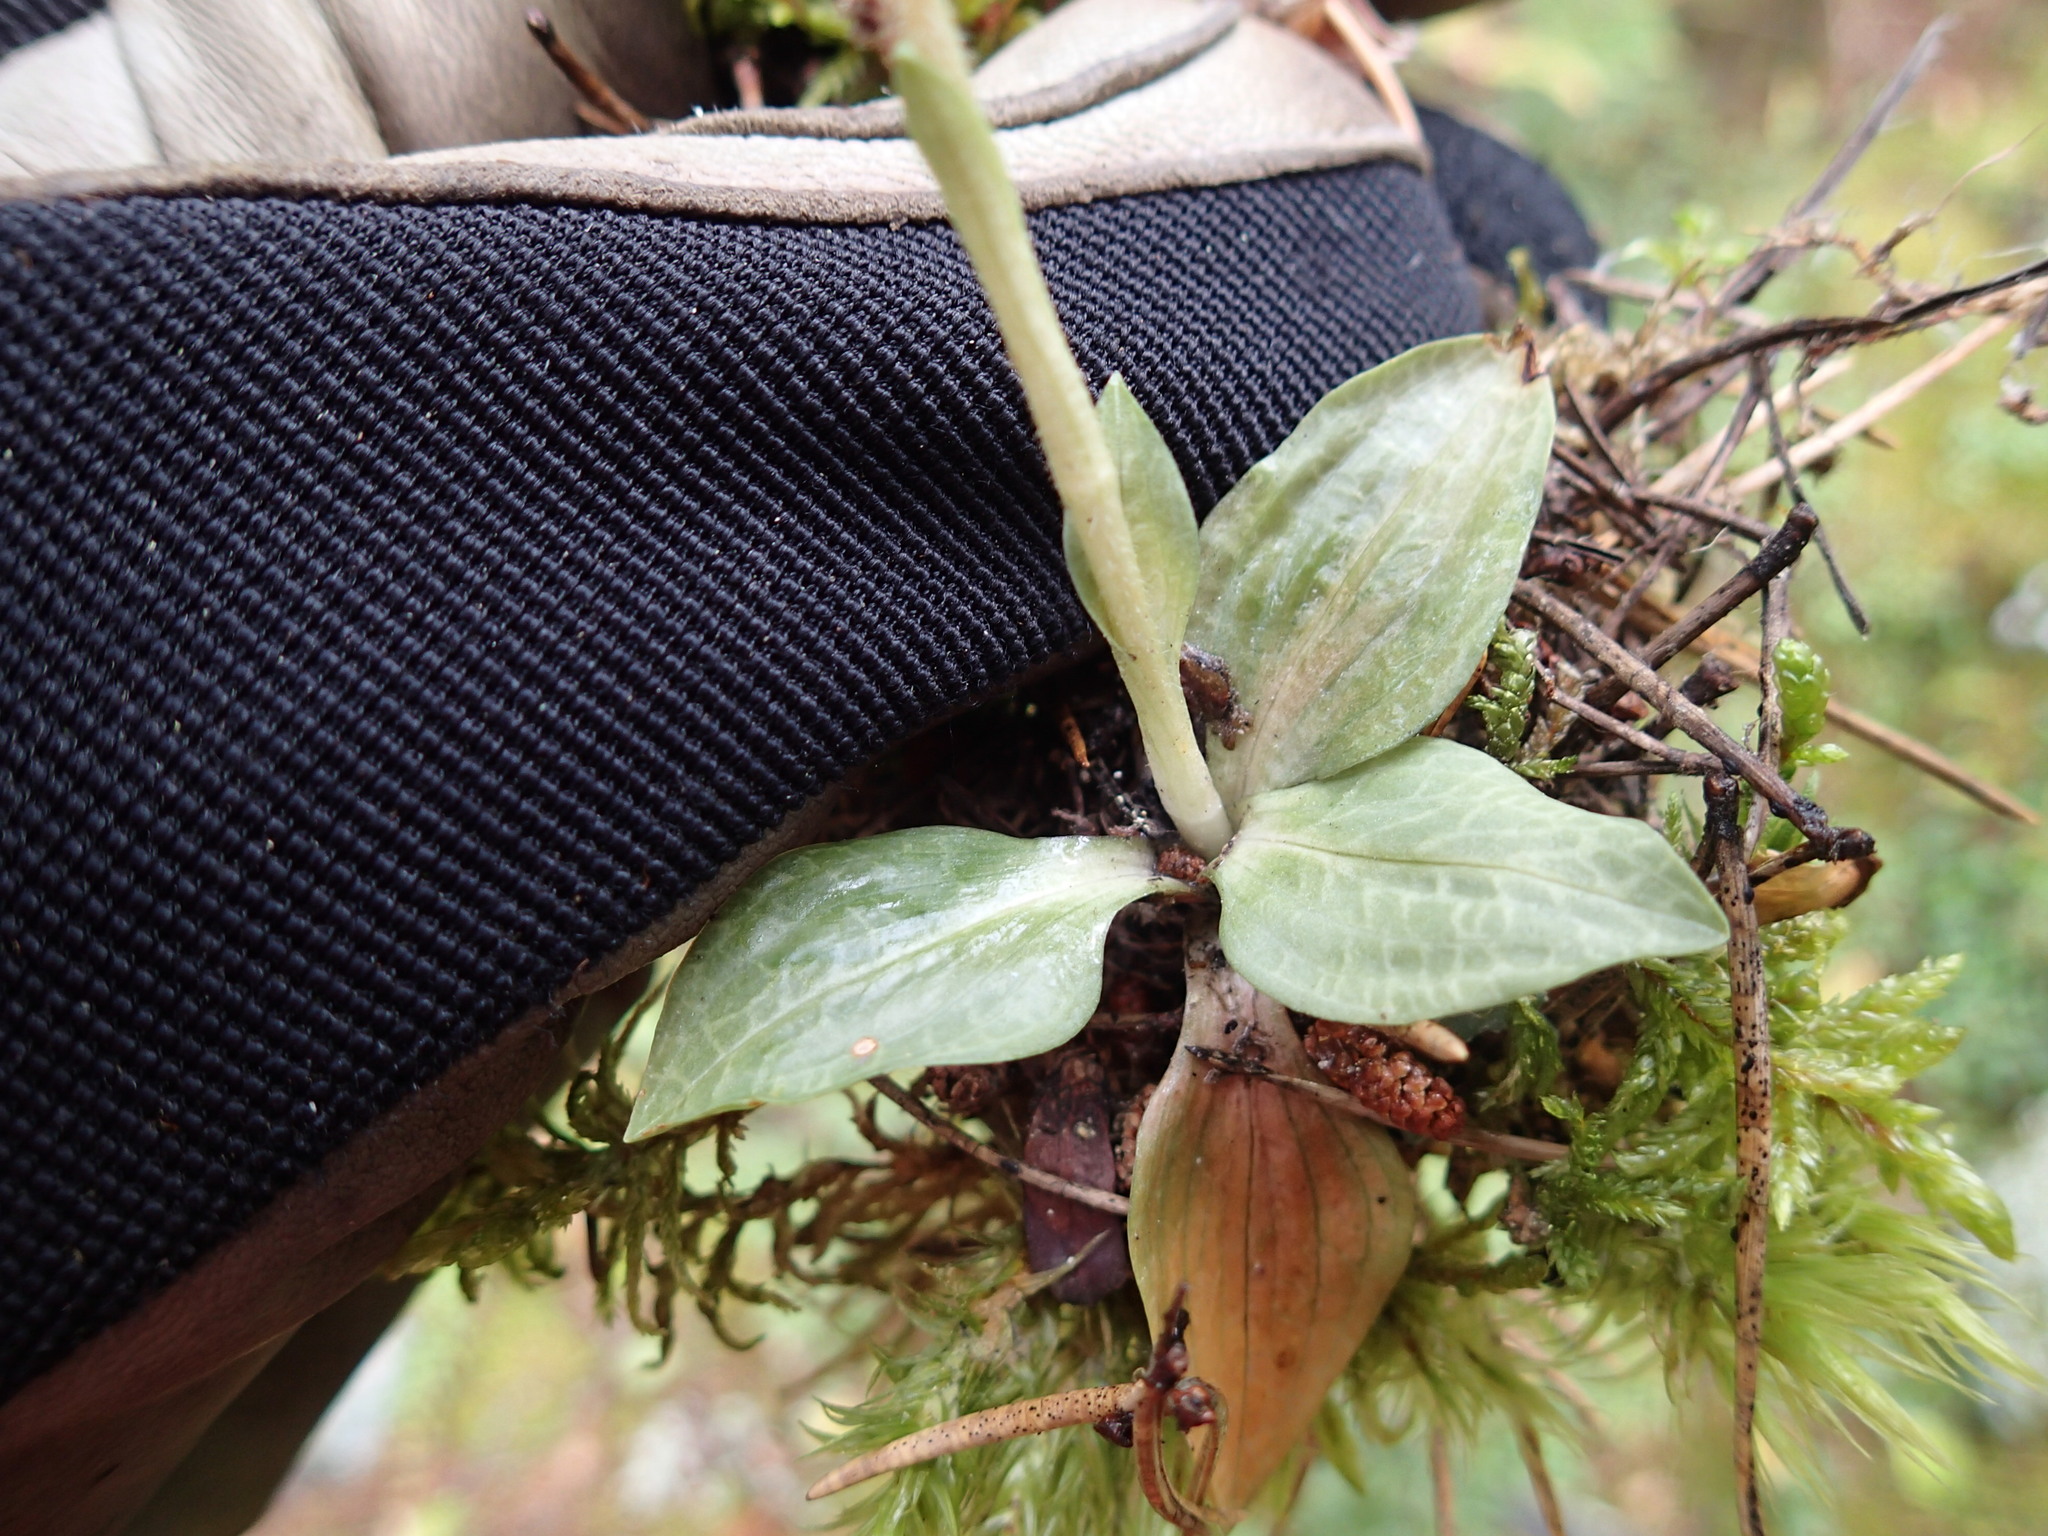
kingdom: Plantae
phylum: Tracheophyta
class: Liliopsida
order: Asparagales
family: Orchidaceae
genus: Goodyera
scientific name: Goodyera tesselata
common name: Checkered rattlesnake-plantain
